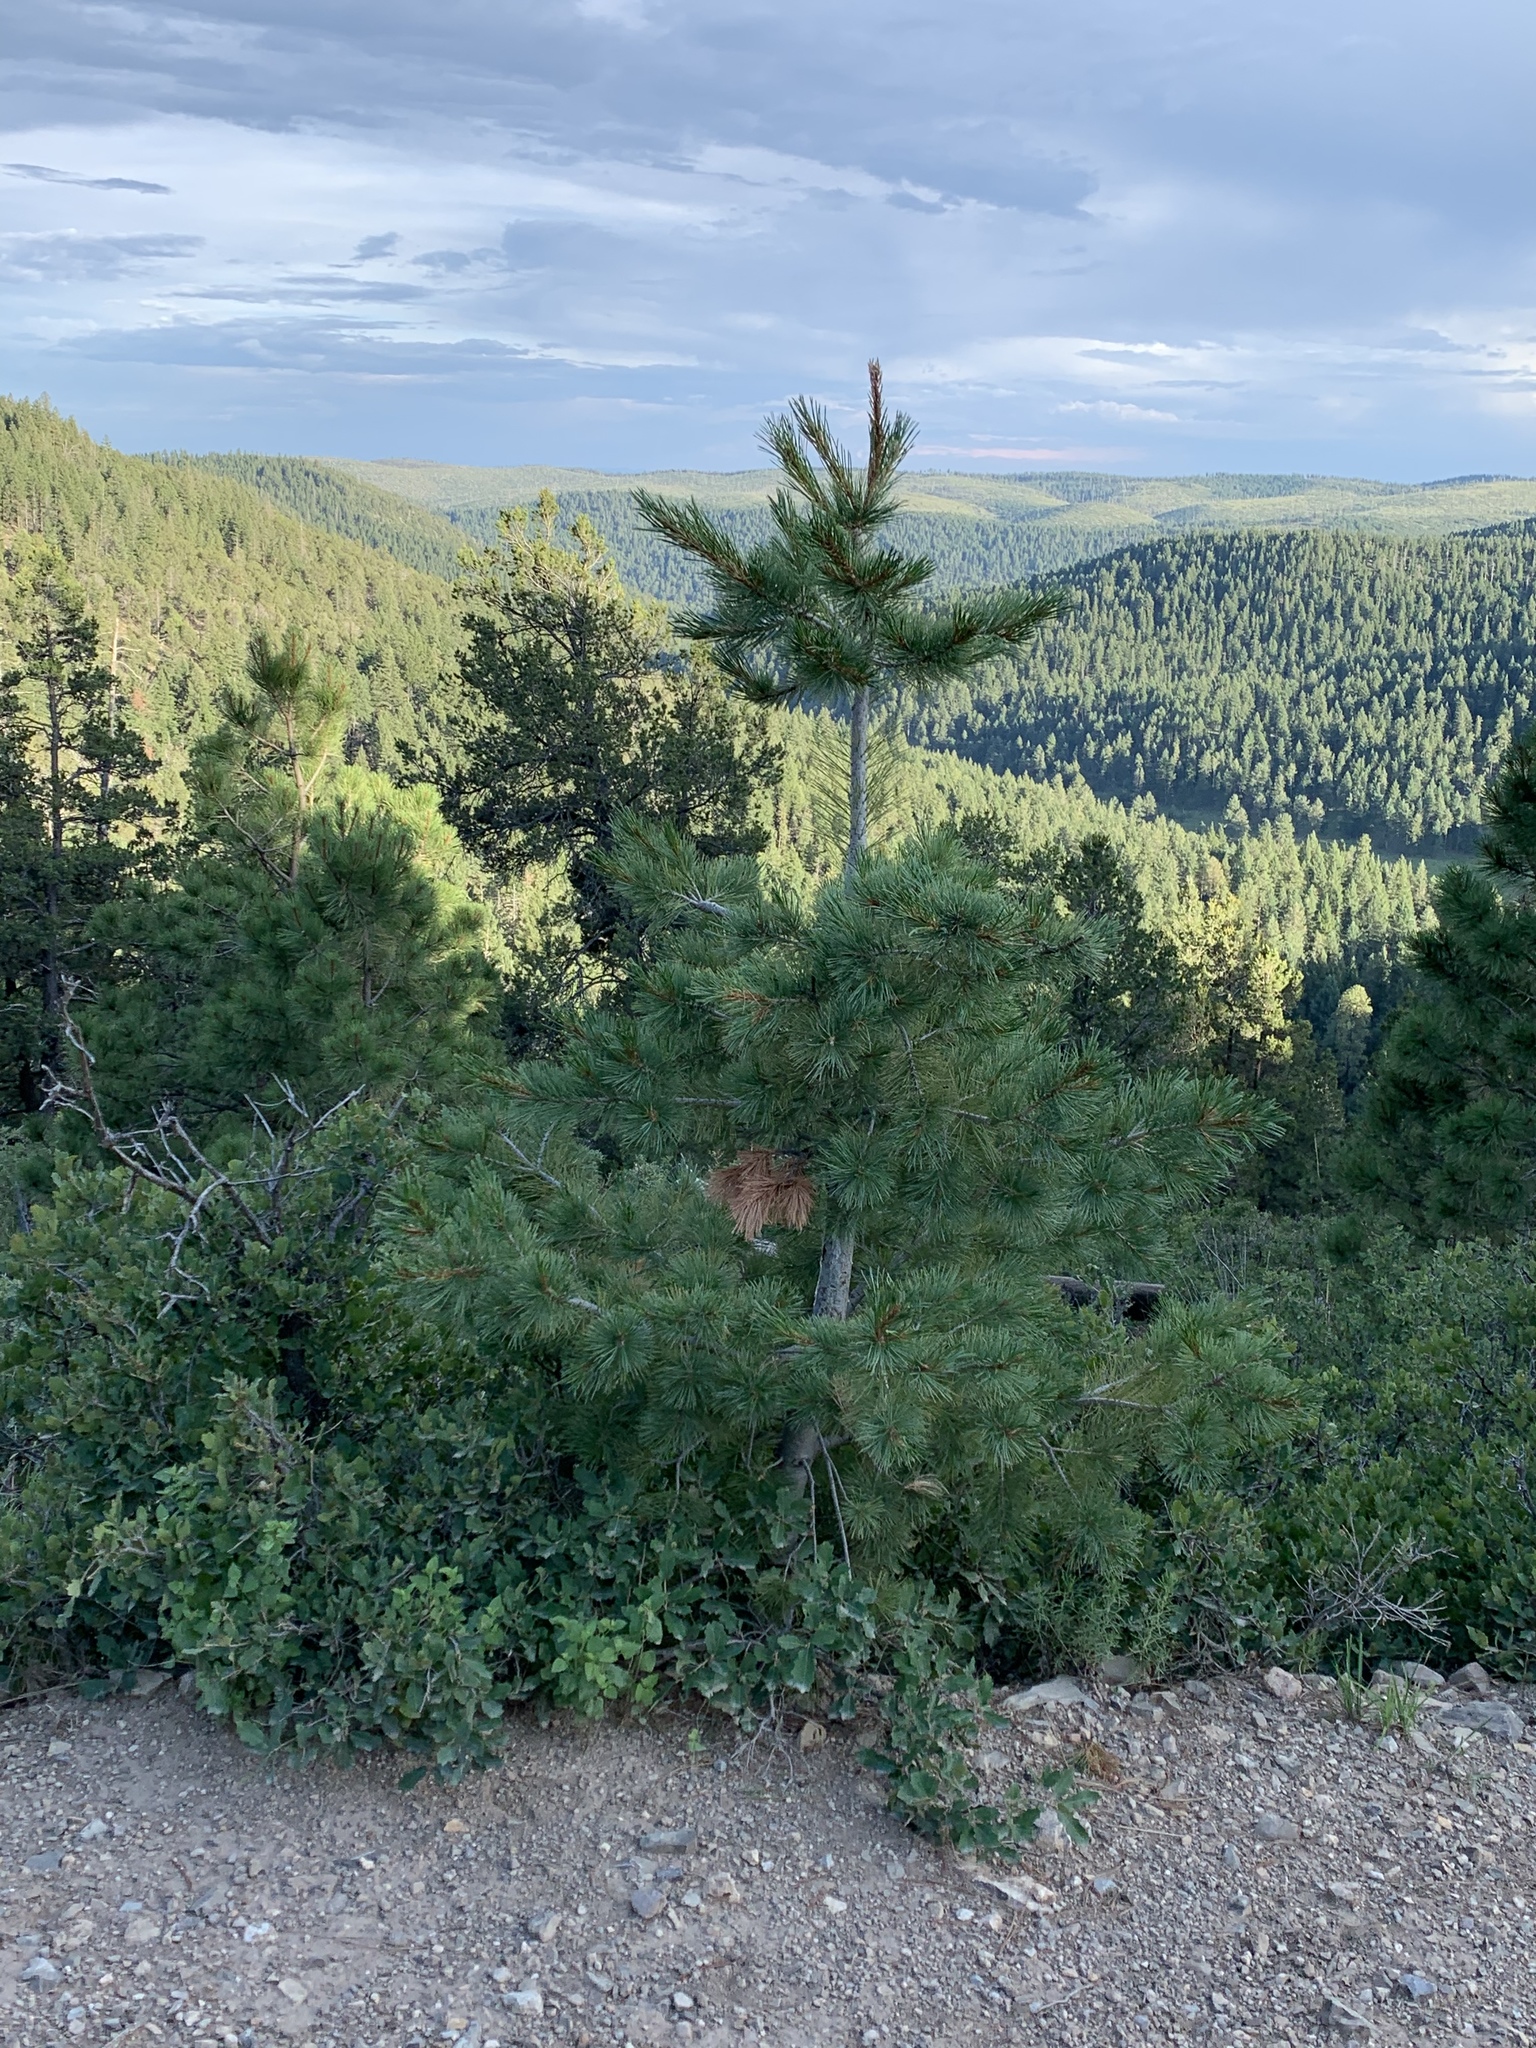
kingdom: Plantae
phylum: Tracheophyta
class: Pinopsida
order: Pinales
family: Pinaceae
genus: Pinus
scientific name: Pinus strobiformis
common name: Southwestern white pine
